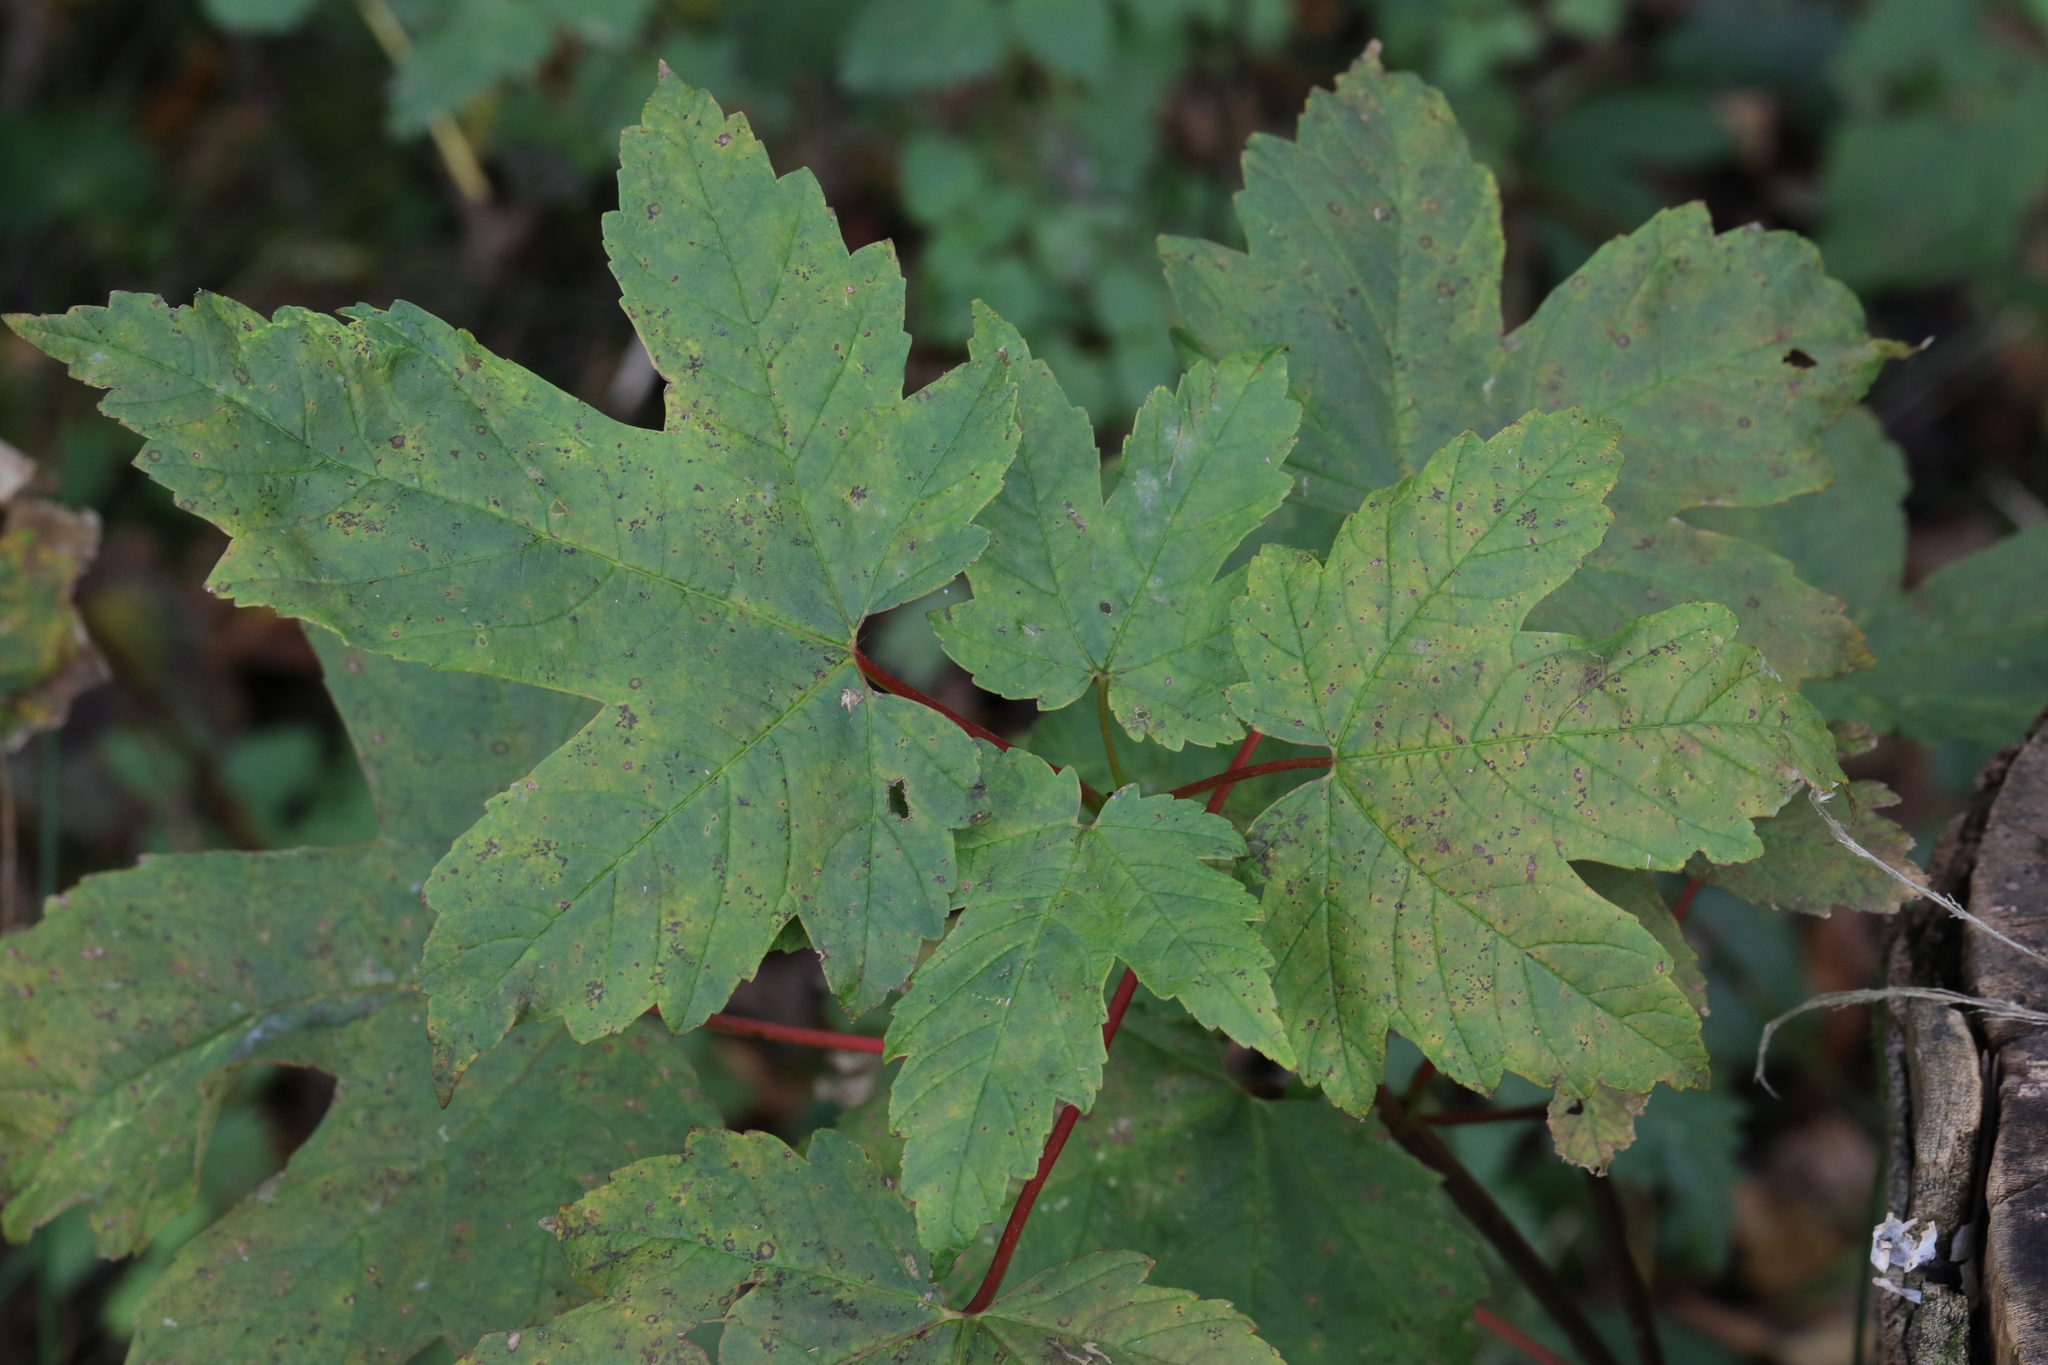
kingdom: Plantae
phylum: Tracheophyta
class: Magnoliopsida
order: Sapindales
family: Sapindaceae
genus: Acer
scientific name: Acer pseudoplatanus
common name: Sycamore
